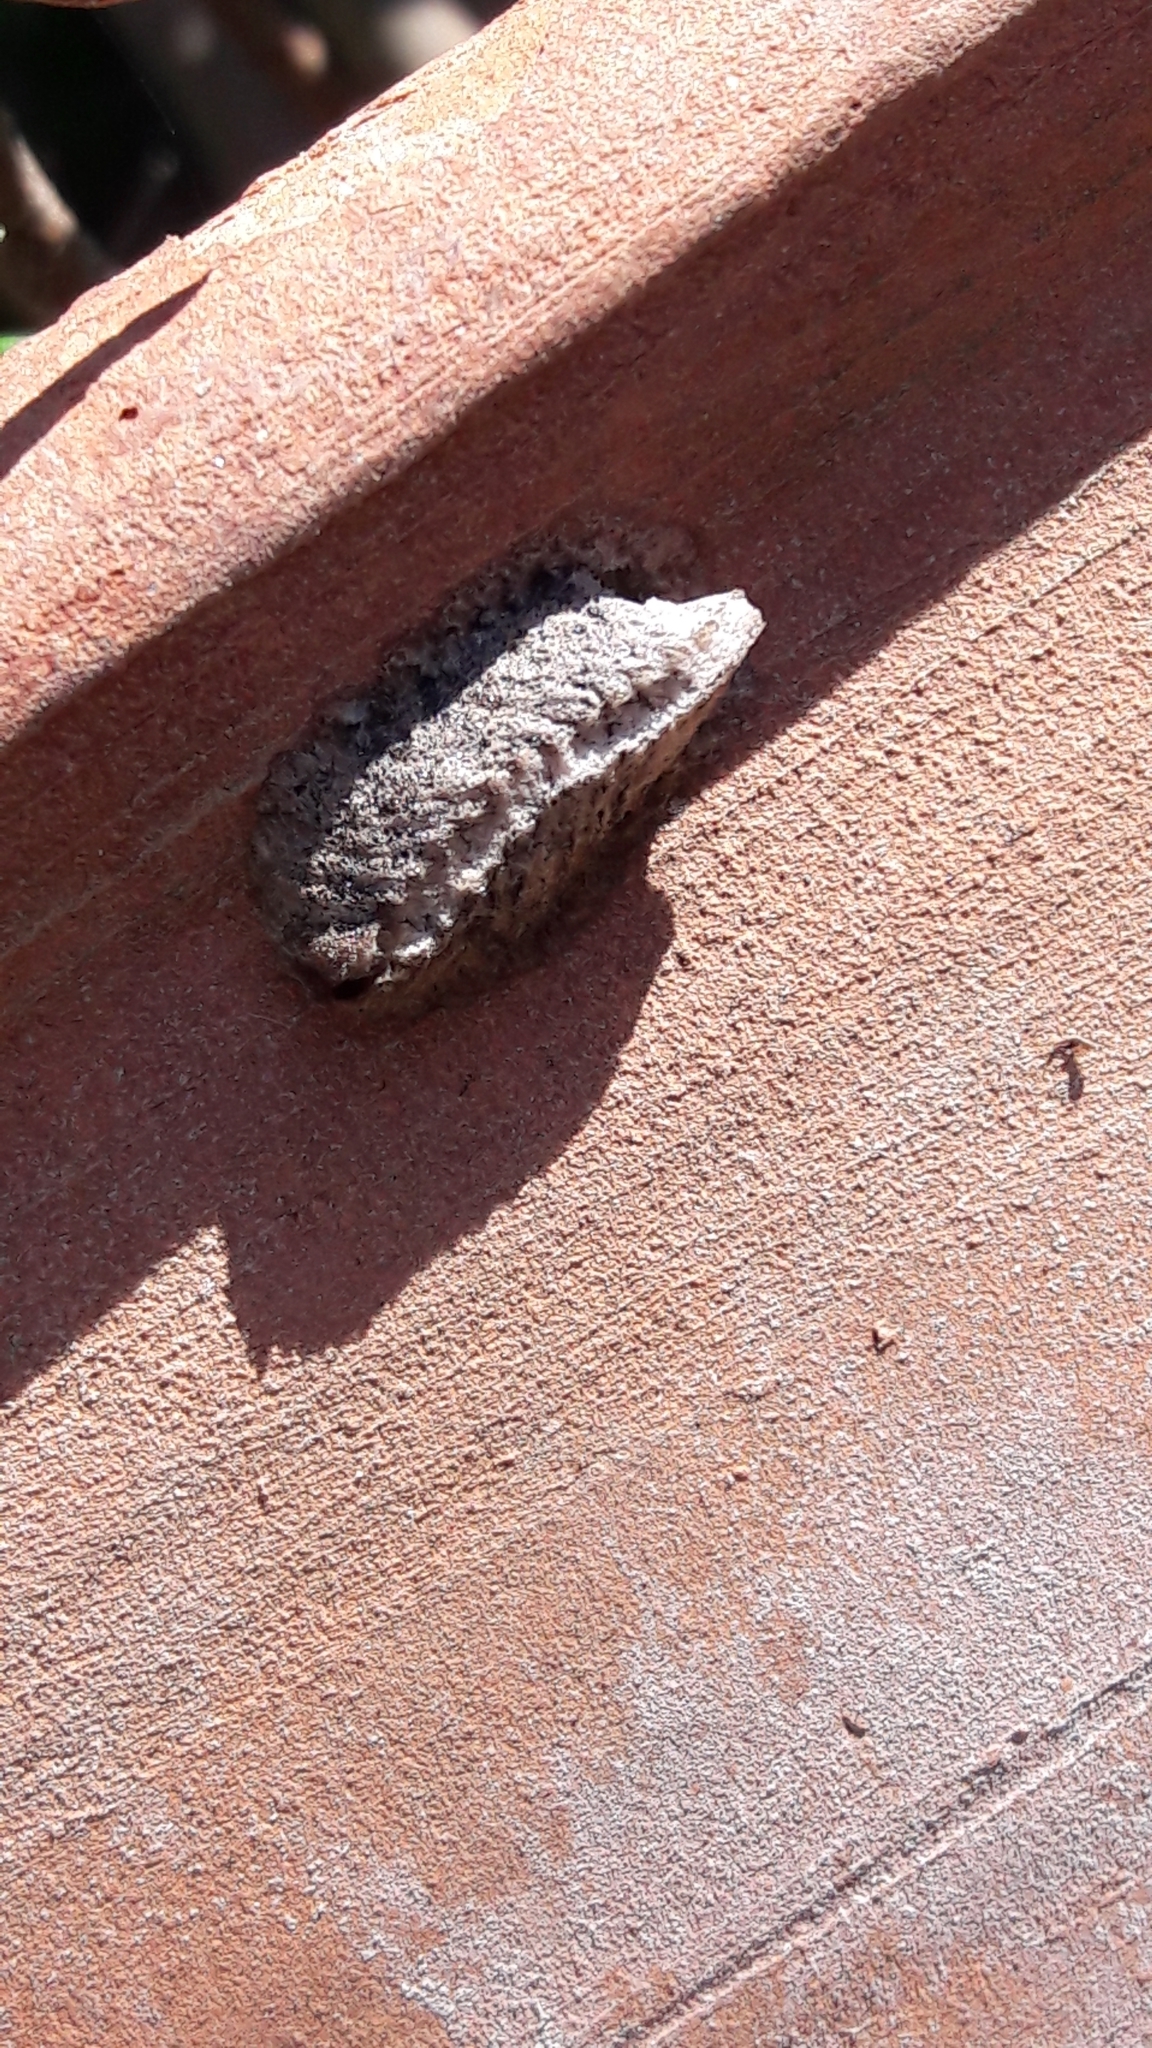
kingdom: Animalia
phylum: Arthropoda
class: Insecta
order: Mantodea
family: Eremiaphilidae
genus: Iris
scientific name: Iris oratoria
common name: Mediterranean mantis
